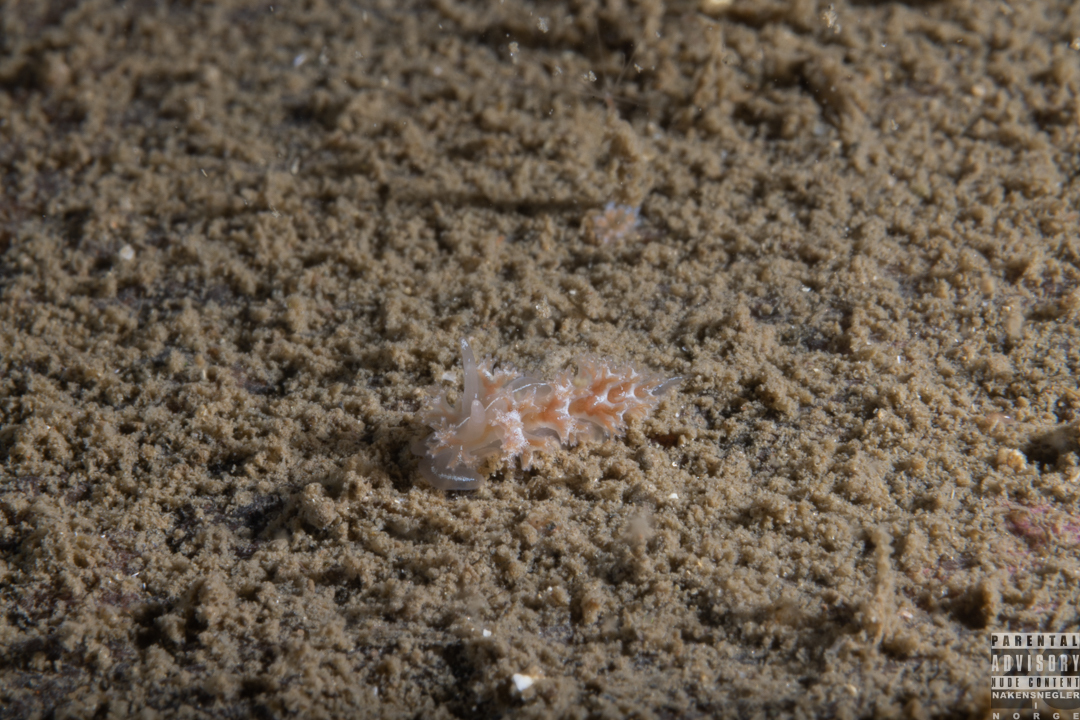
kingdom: Animalia
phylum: Mollusca
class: Gastropoda
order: Nudibranchia
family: Heroidae
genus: Hero
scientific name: Hero formosa
